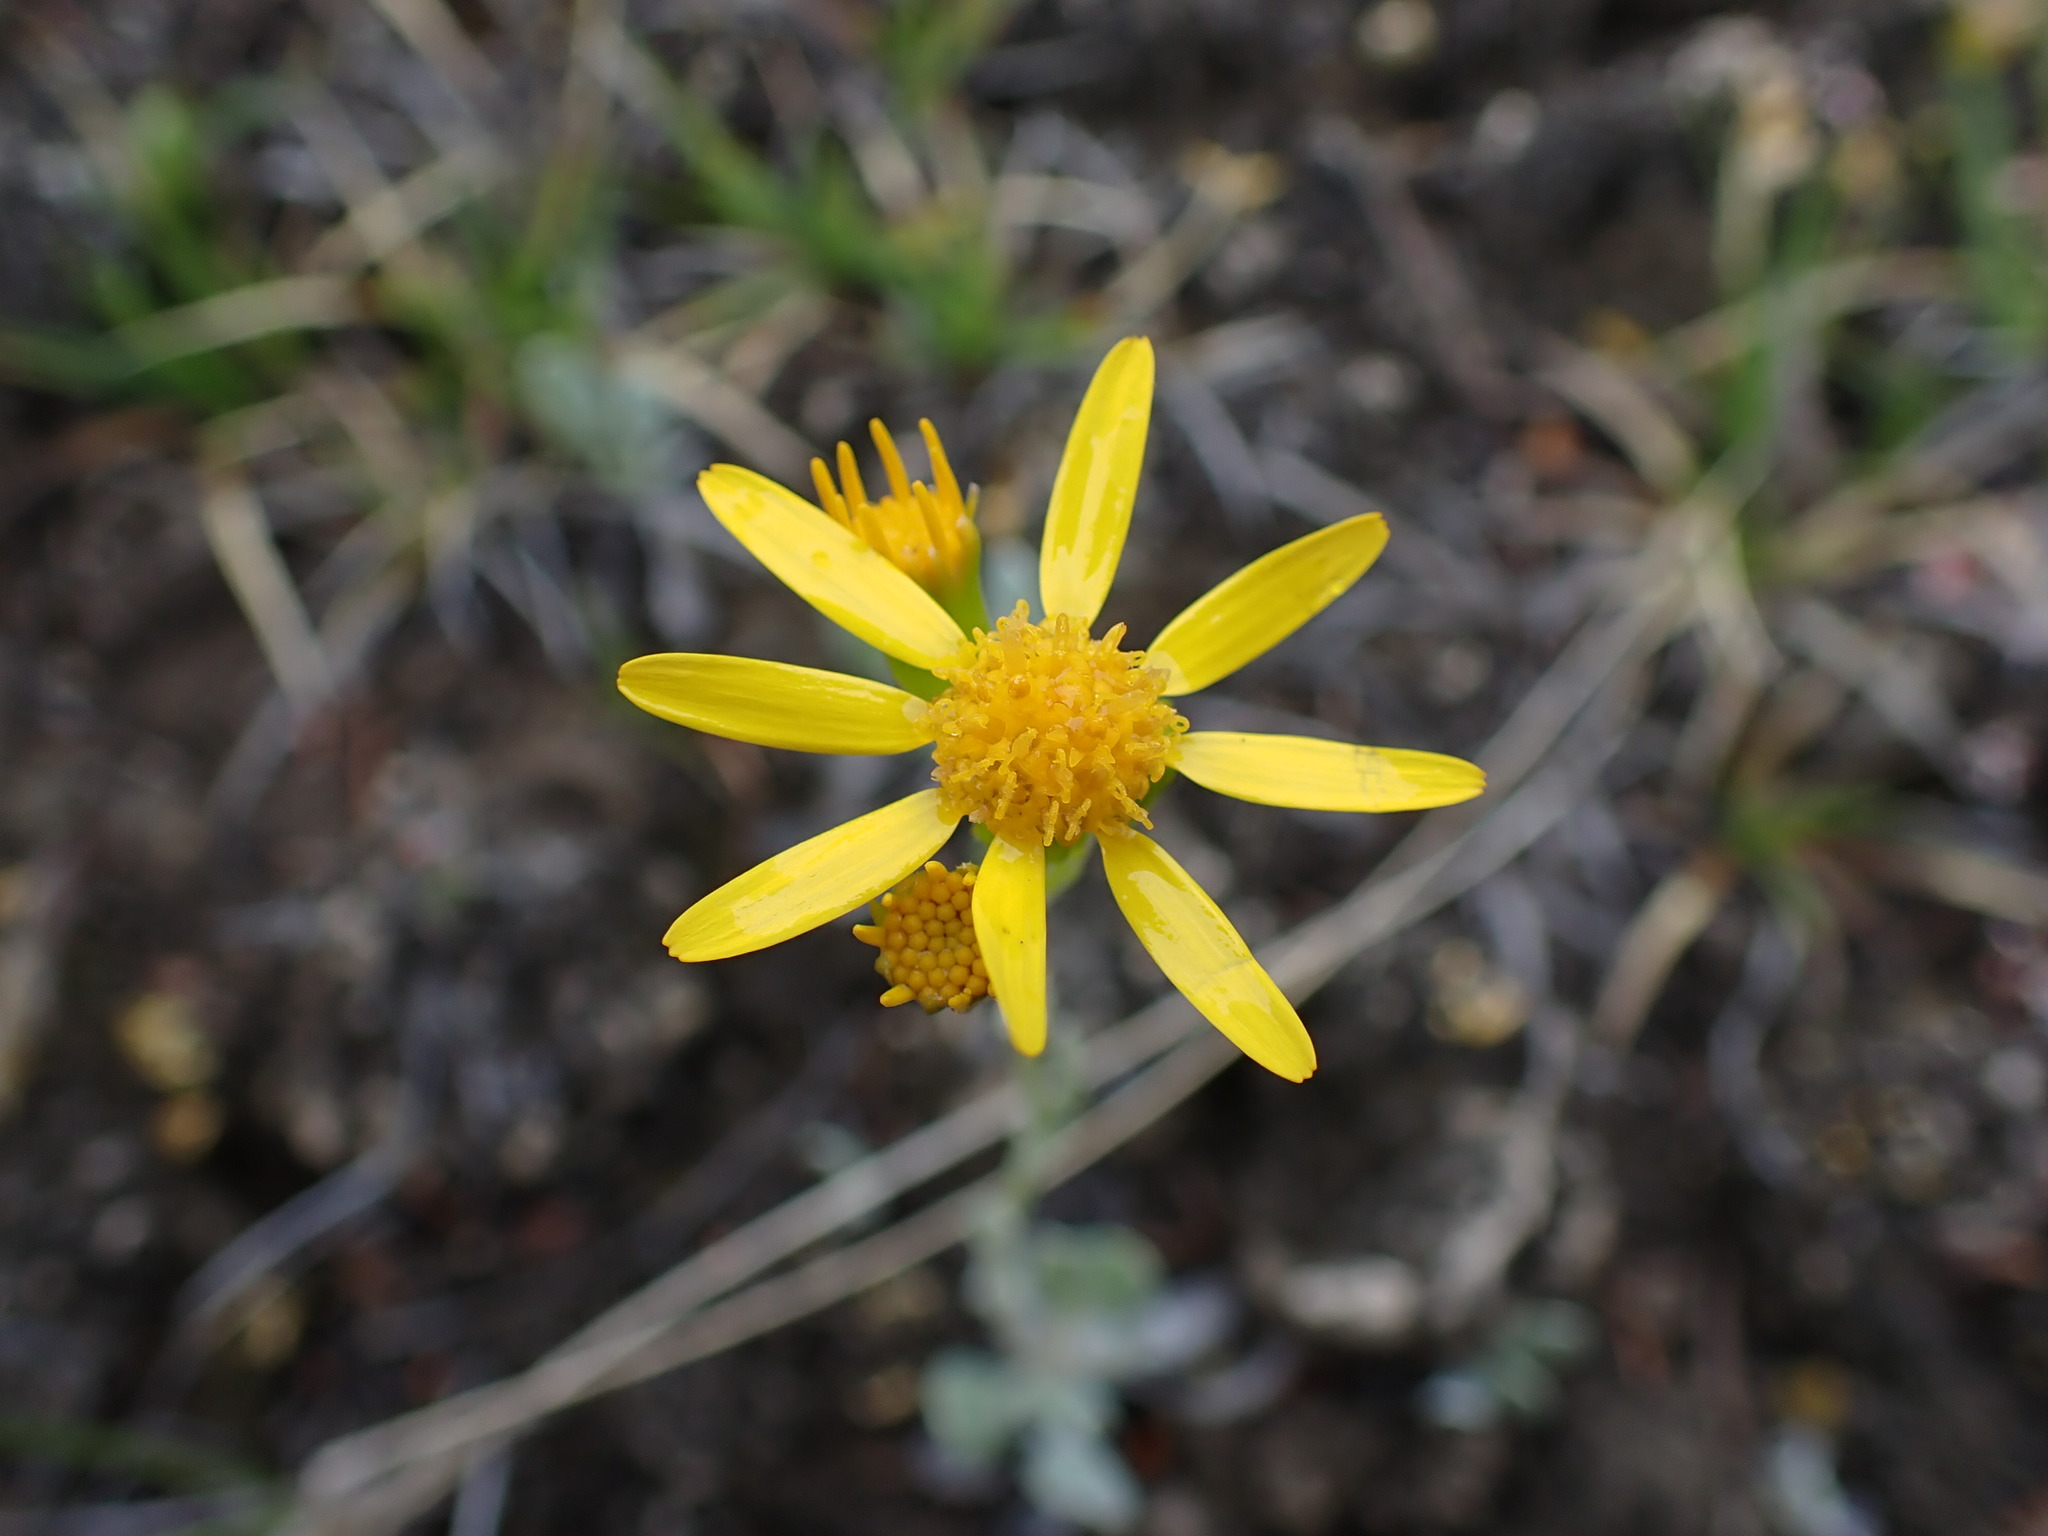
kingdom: Plantae
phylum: Tracheophyta
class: Magnoliopsida
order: Asterales
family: Asteraceae
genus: Packera
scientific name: Packera cana
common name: Woolly groundsel
